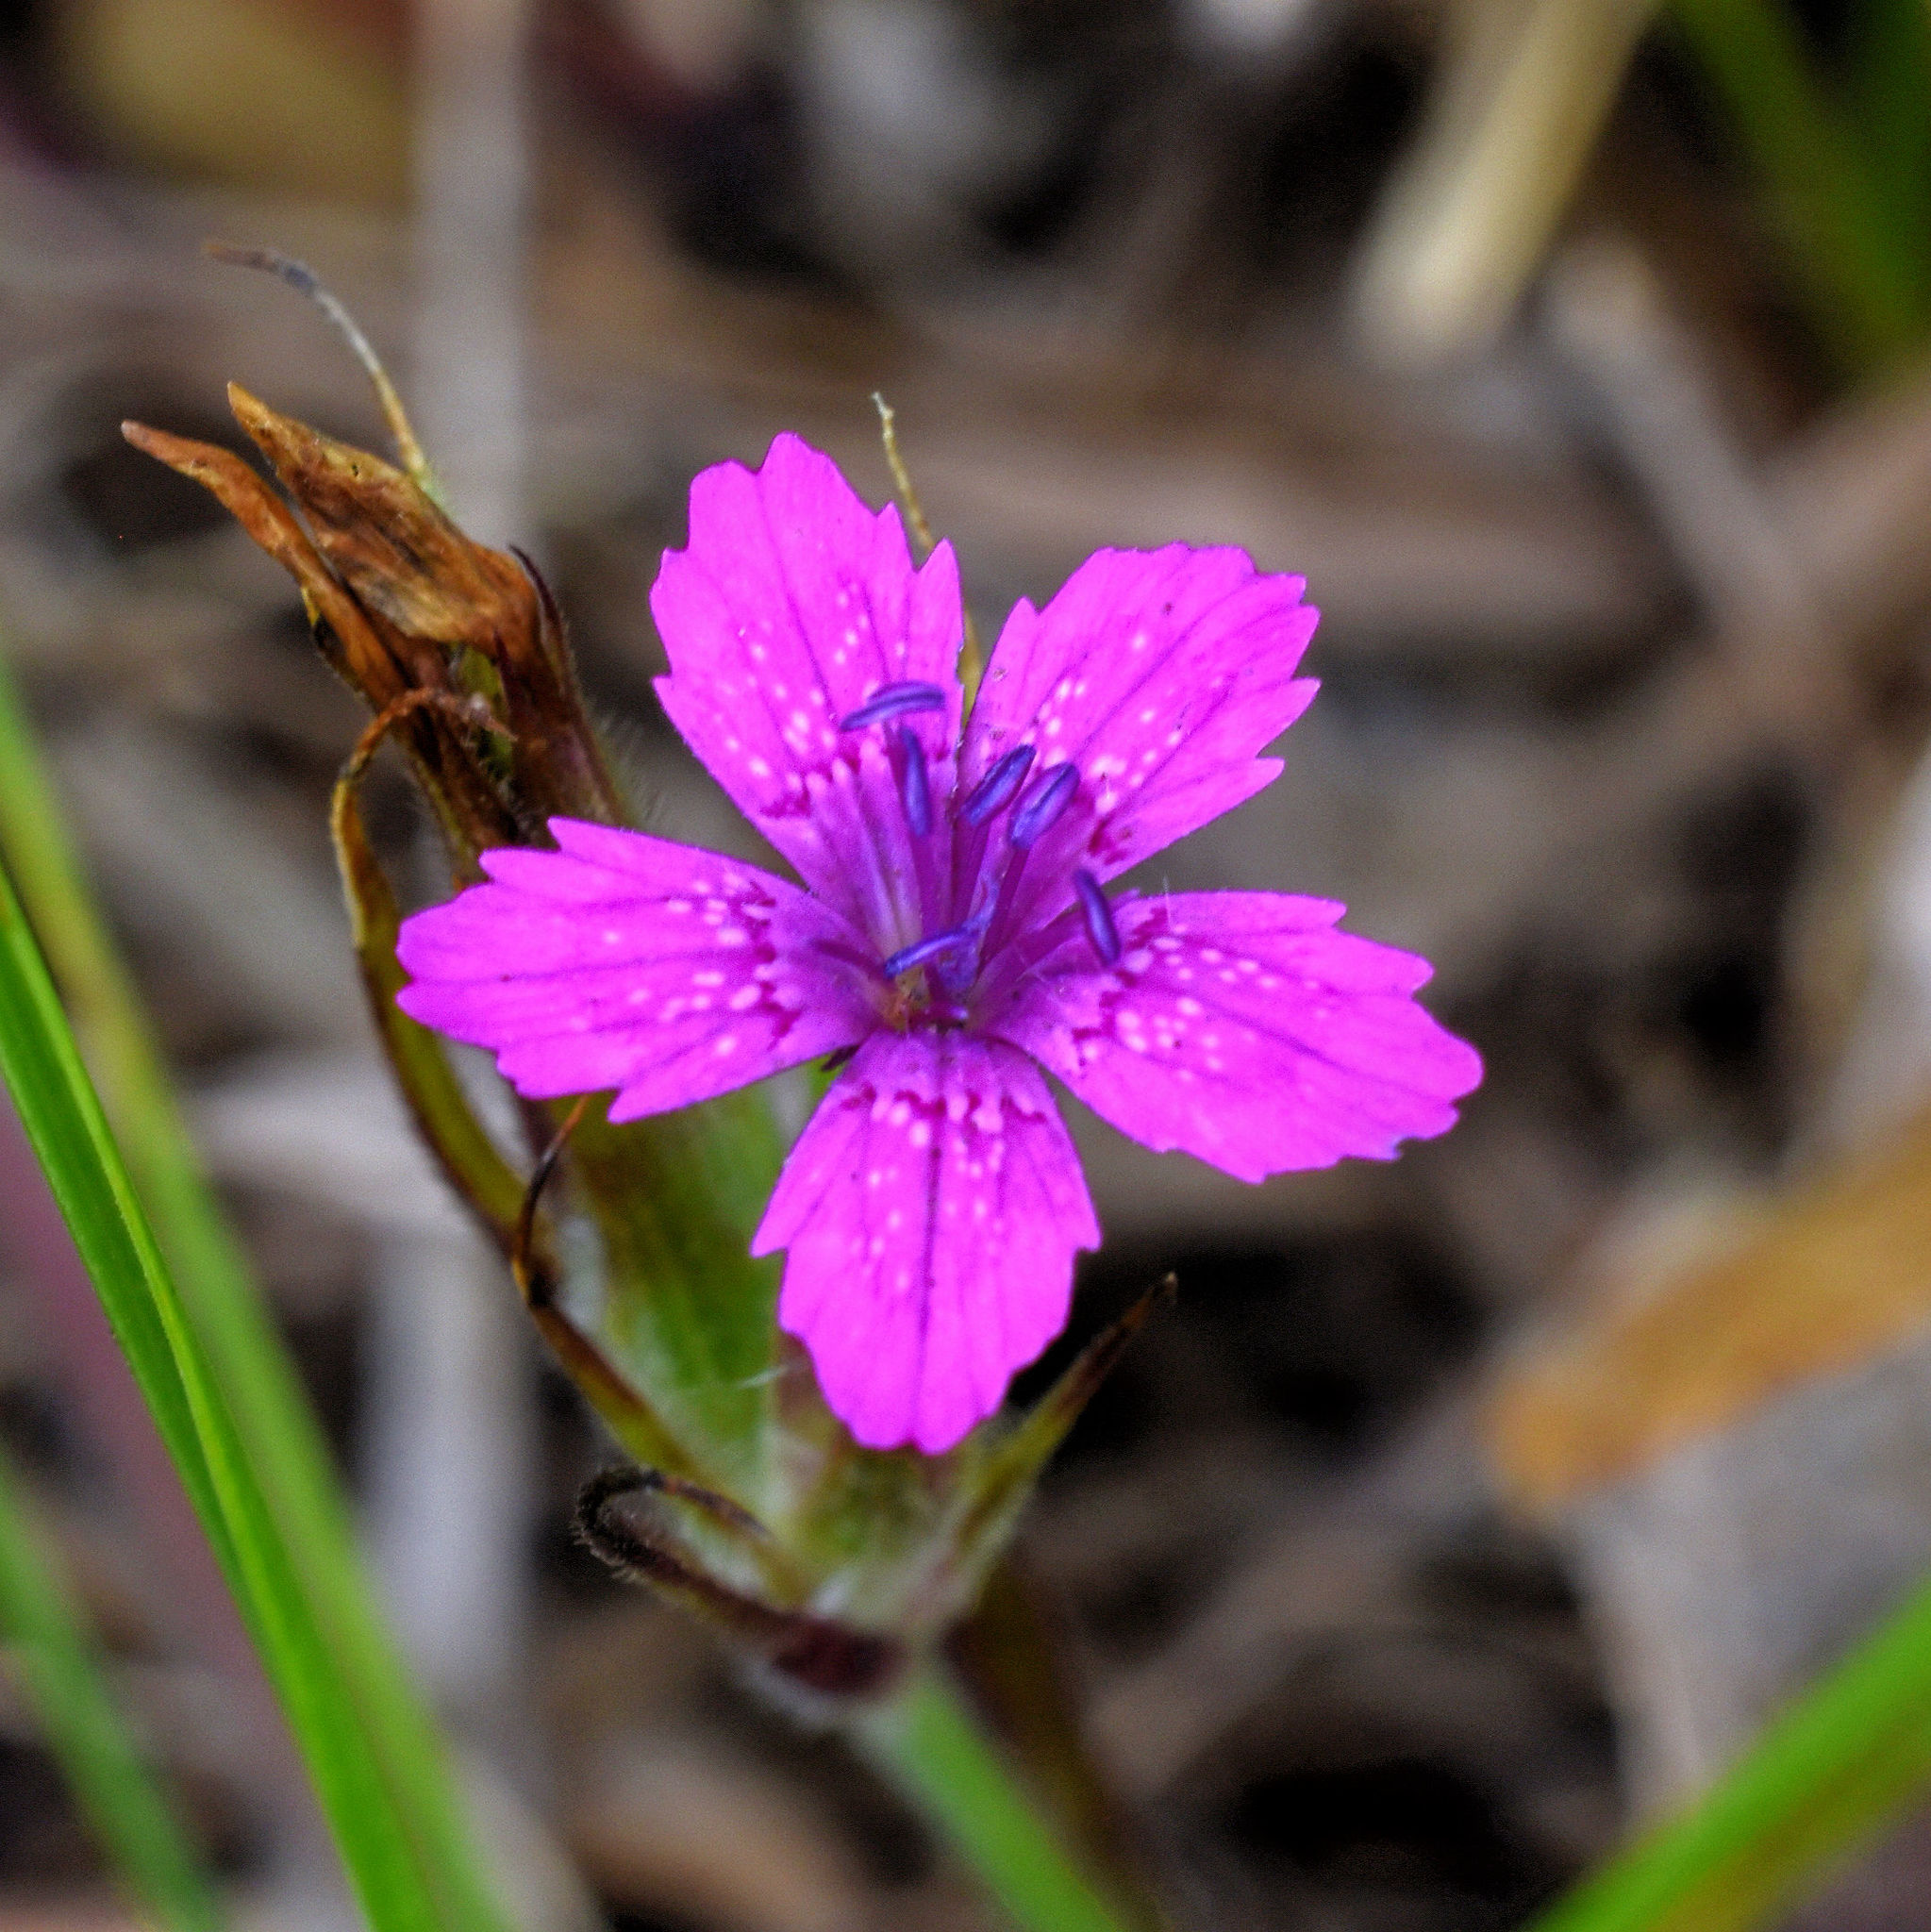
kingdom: Plantae
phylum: Tracheophyta
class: Magnoliopsida
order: Caryophyllales
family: Caryophyllaceae
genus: Dianthus
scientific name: Dianthus armeria
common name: Deptford pink
